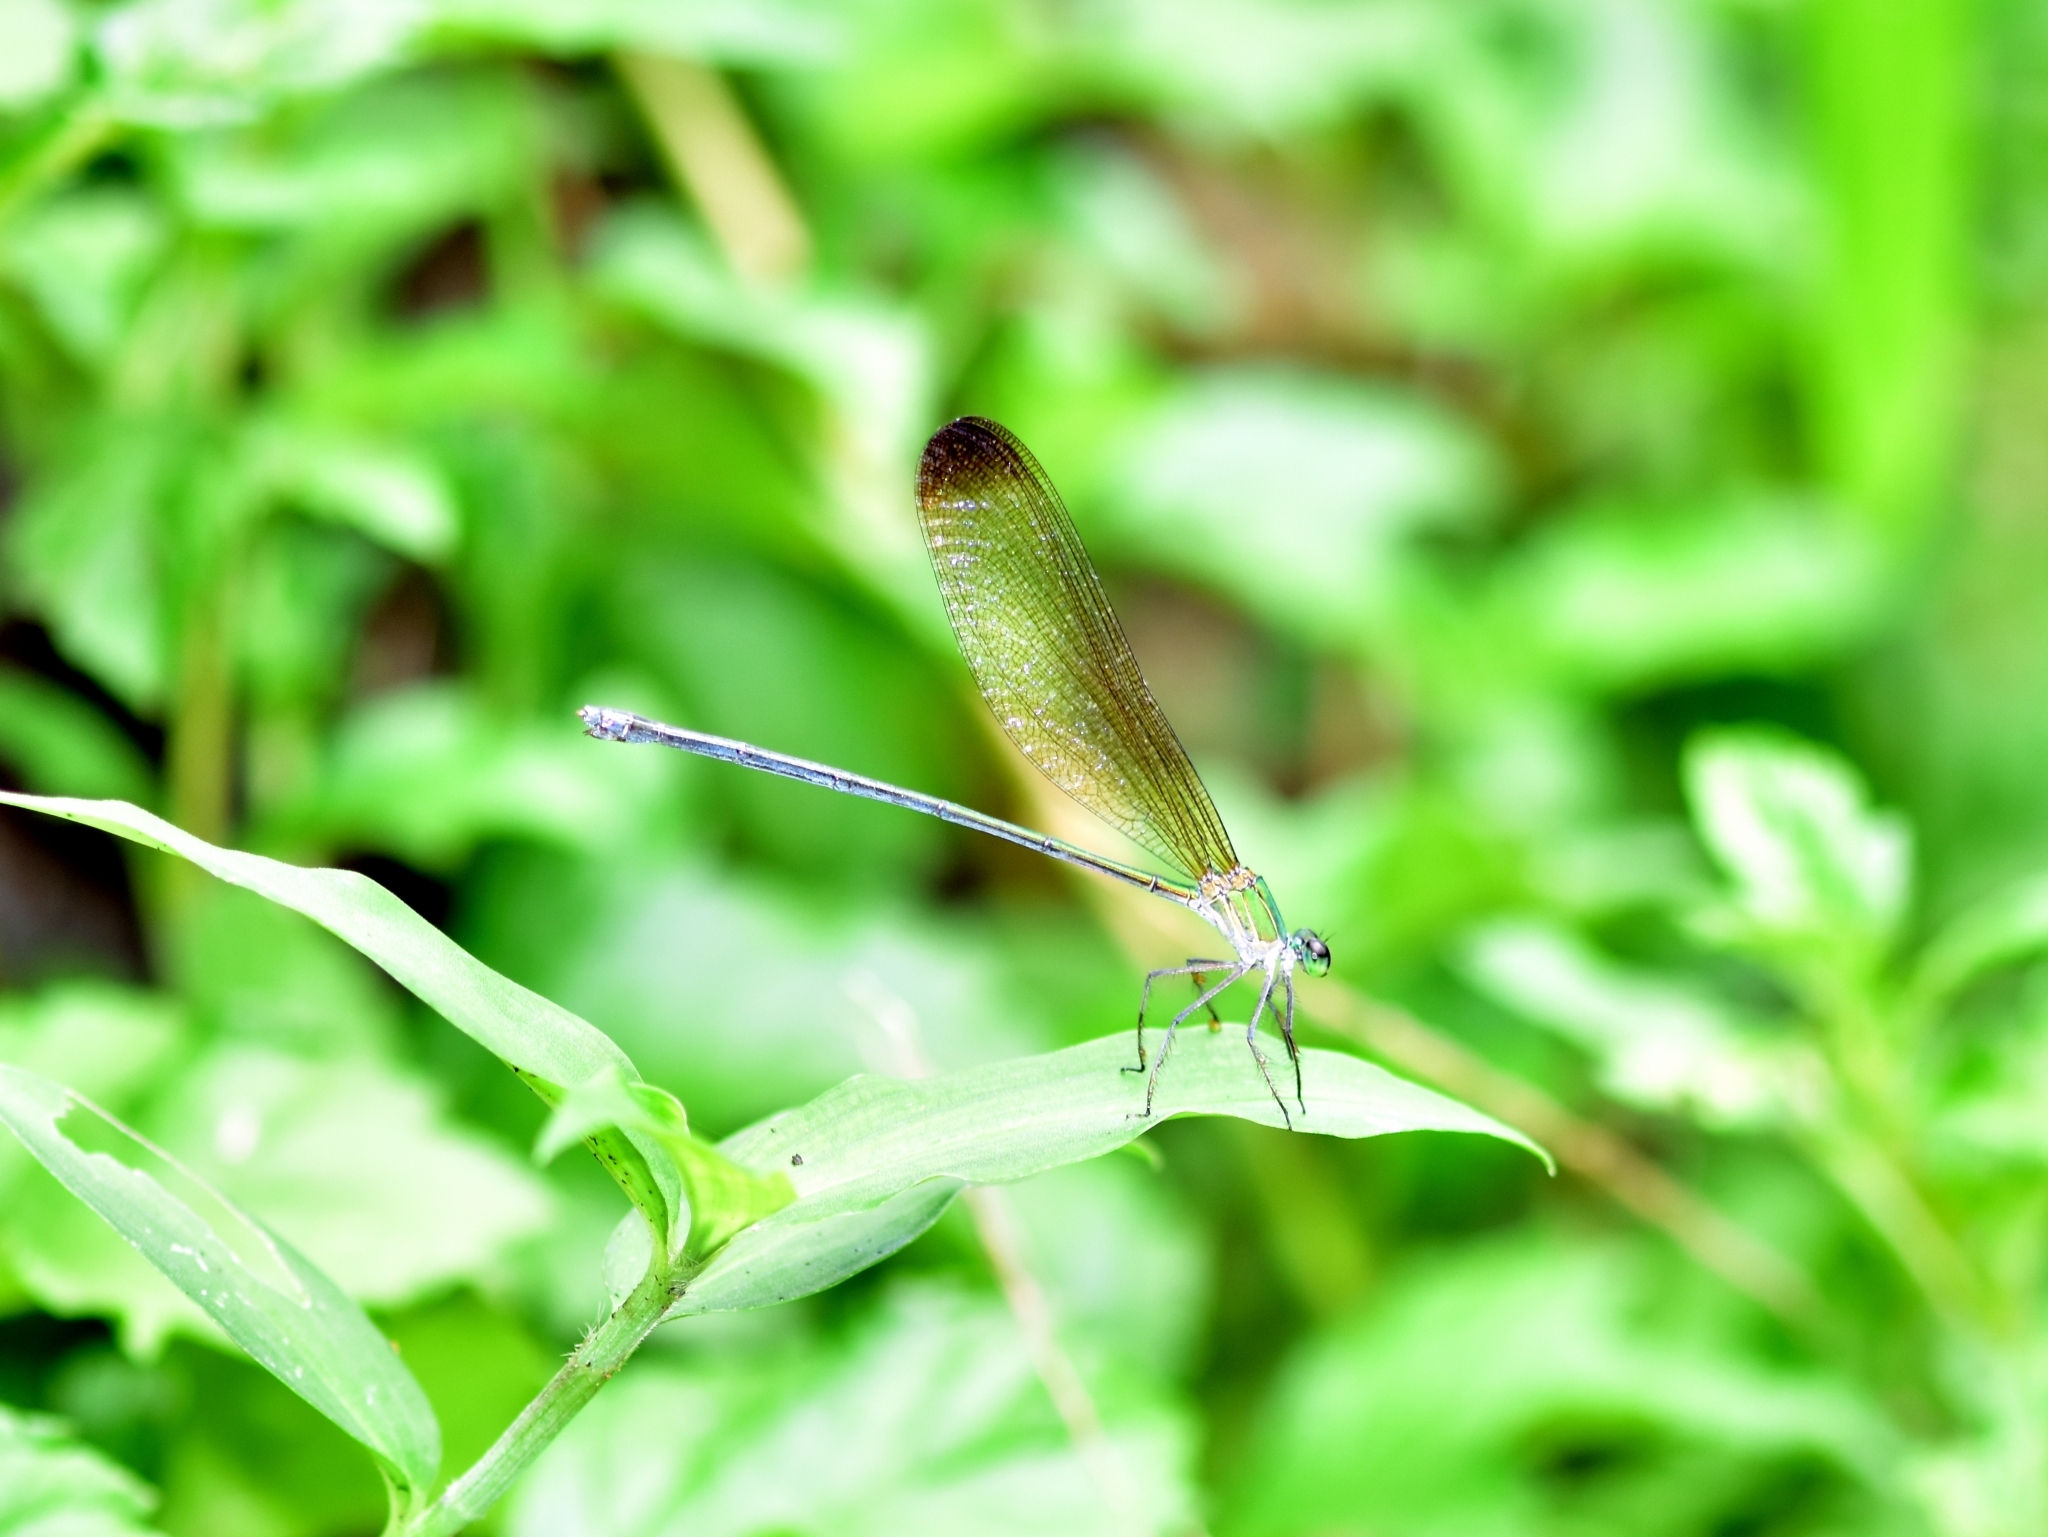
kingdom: Animalia
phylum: Arthropoda
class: Insecta
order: Odonata
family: Calopterygidae
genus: Vestalis
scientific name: Vestalis apicalis
